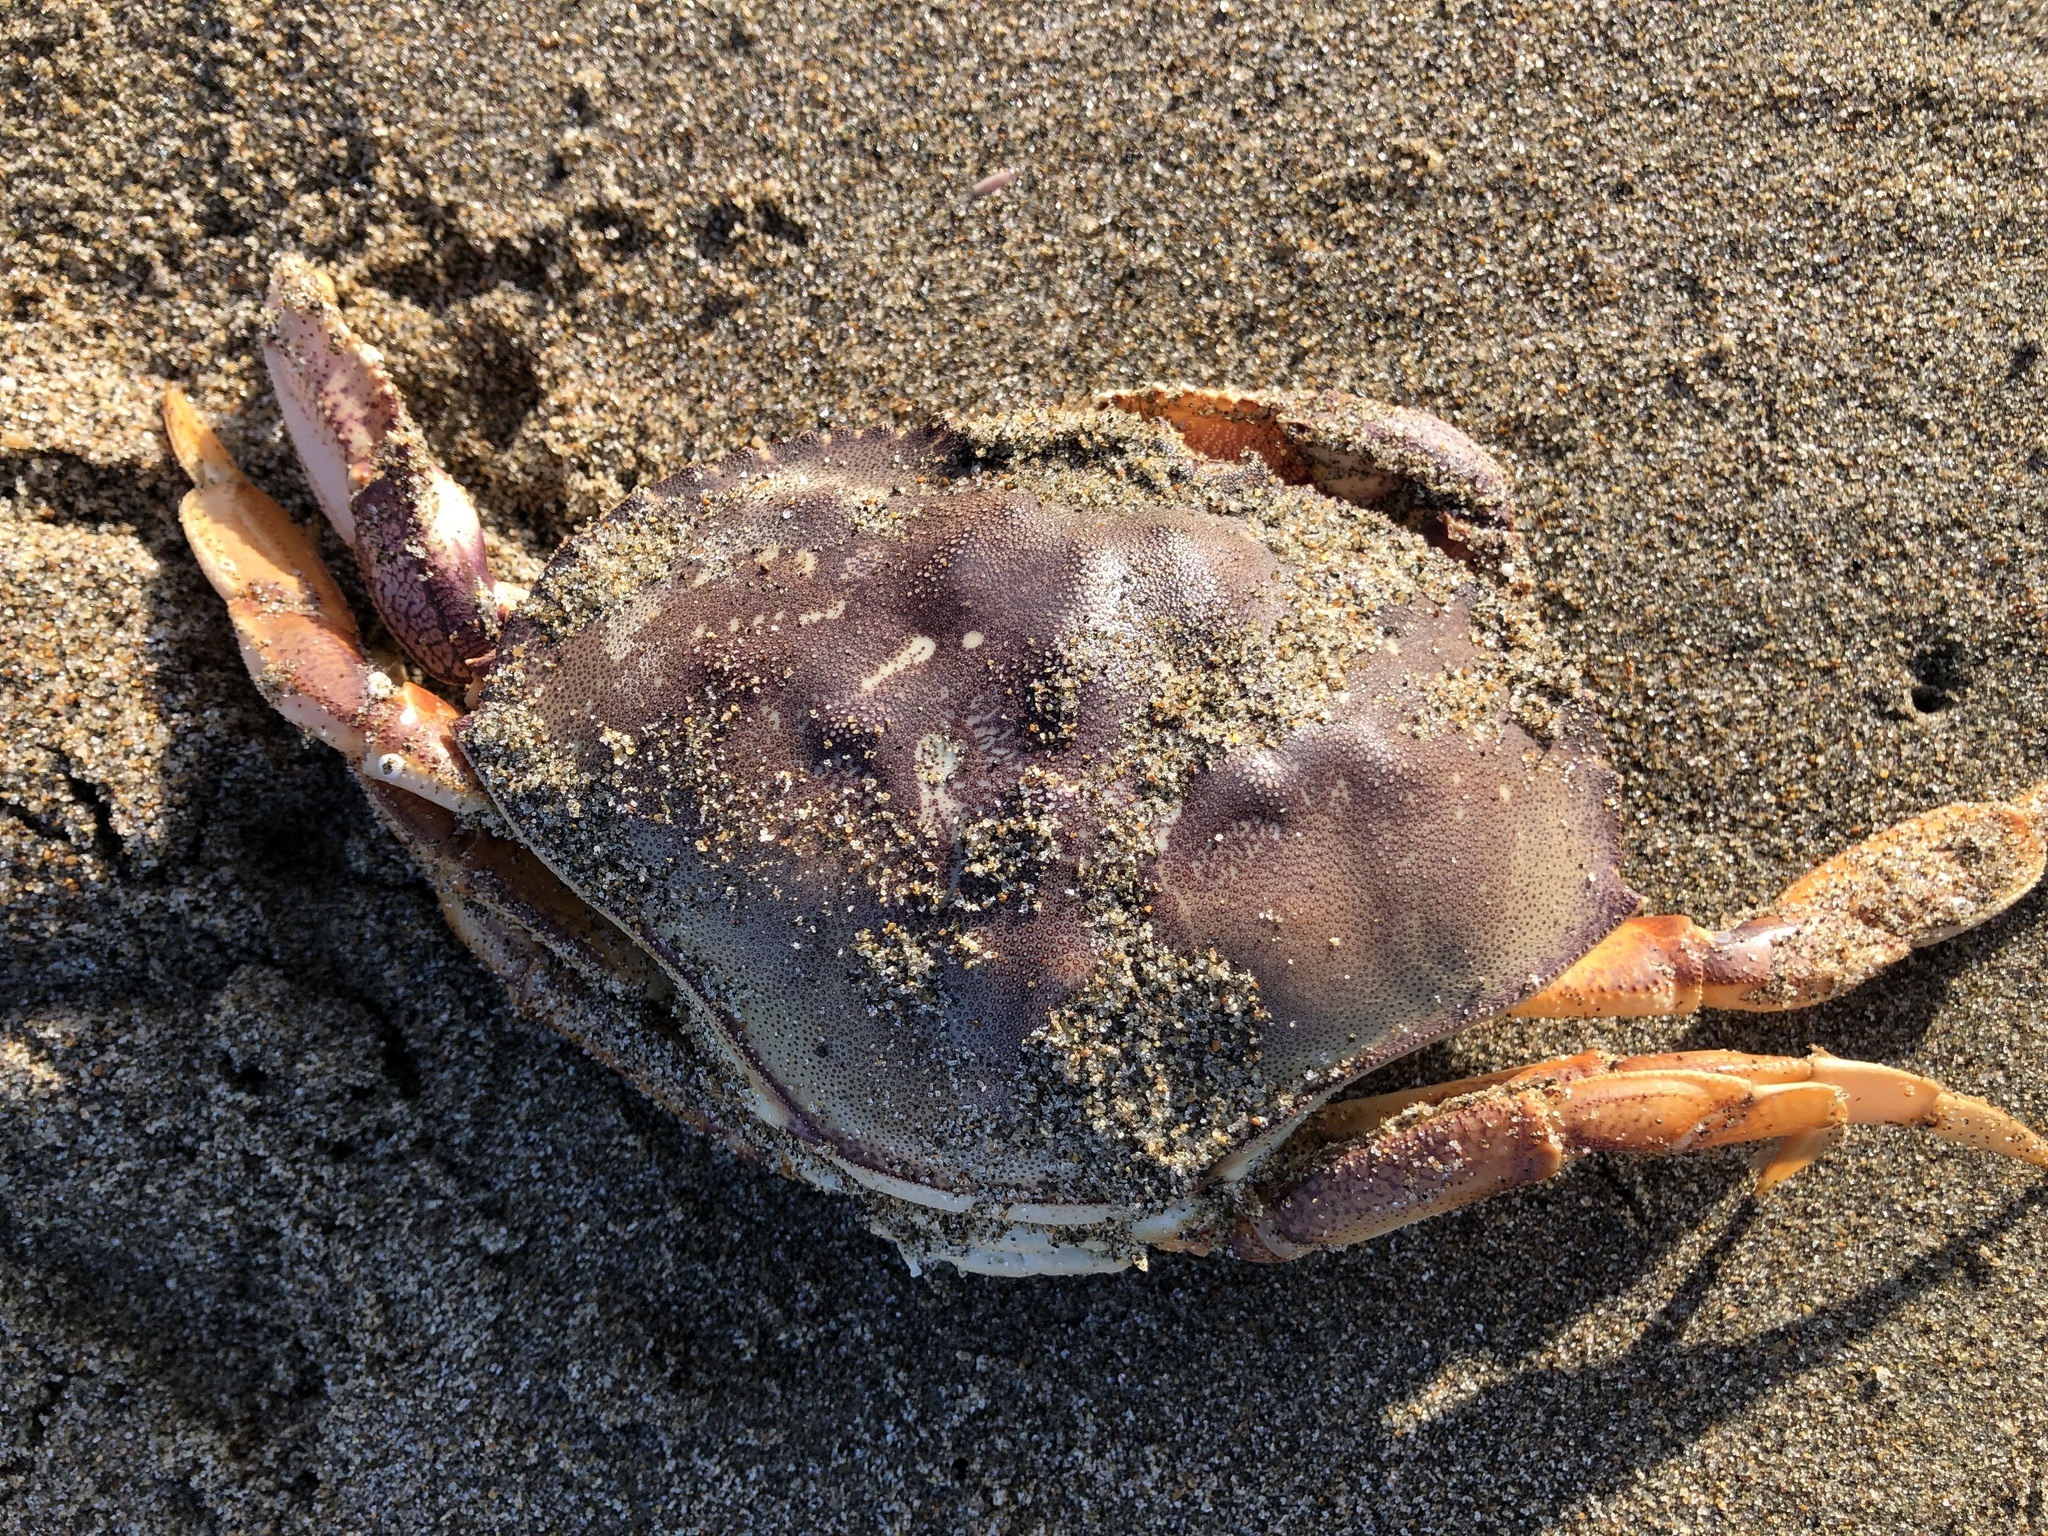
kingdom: Animalia
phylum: Arthropoda
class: Malacostraca
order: Decapoda
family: Cancridae
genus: Metacarcinus
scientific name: Metacarcinus magister
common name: Californian crab
